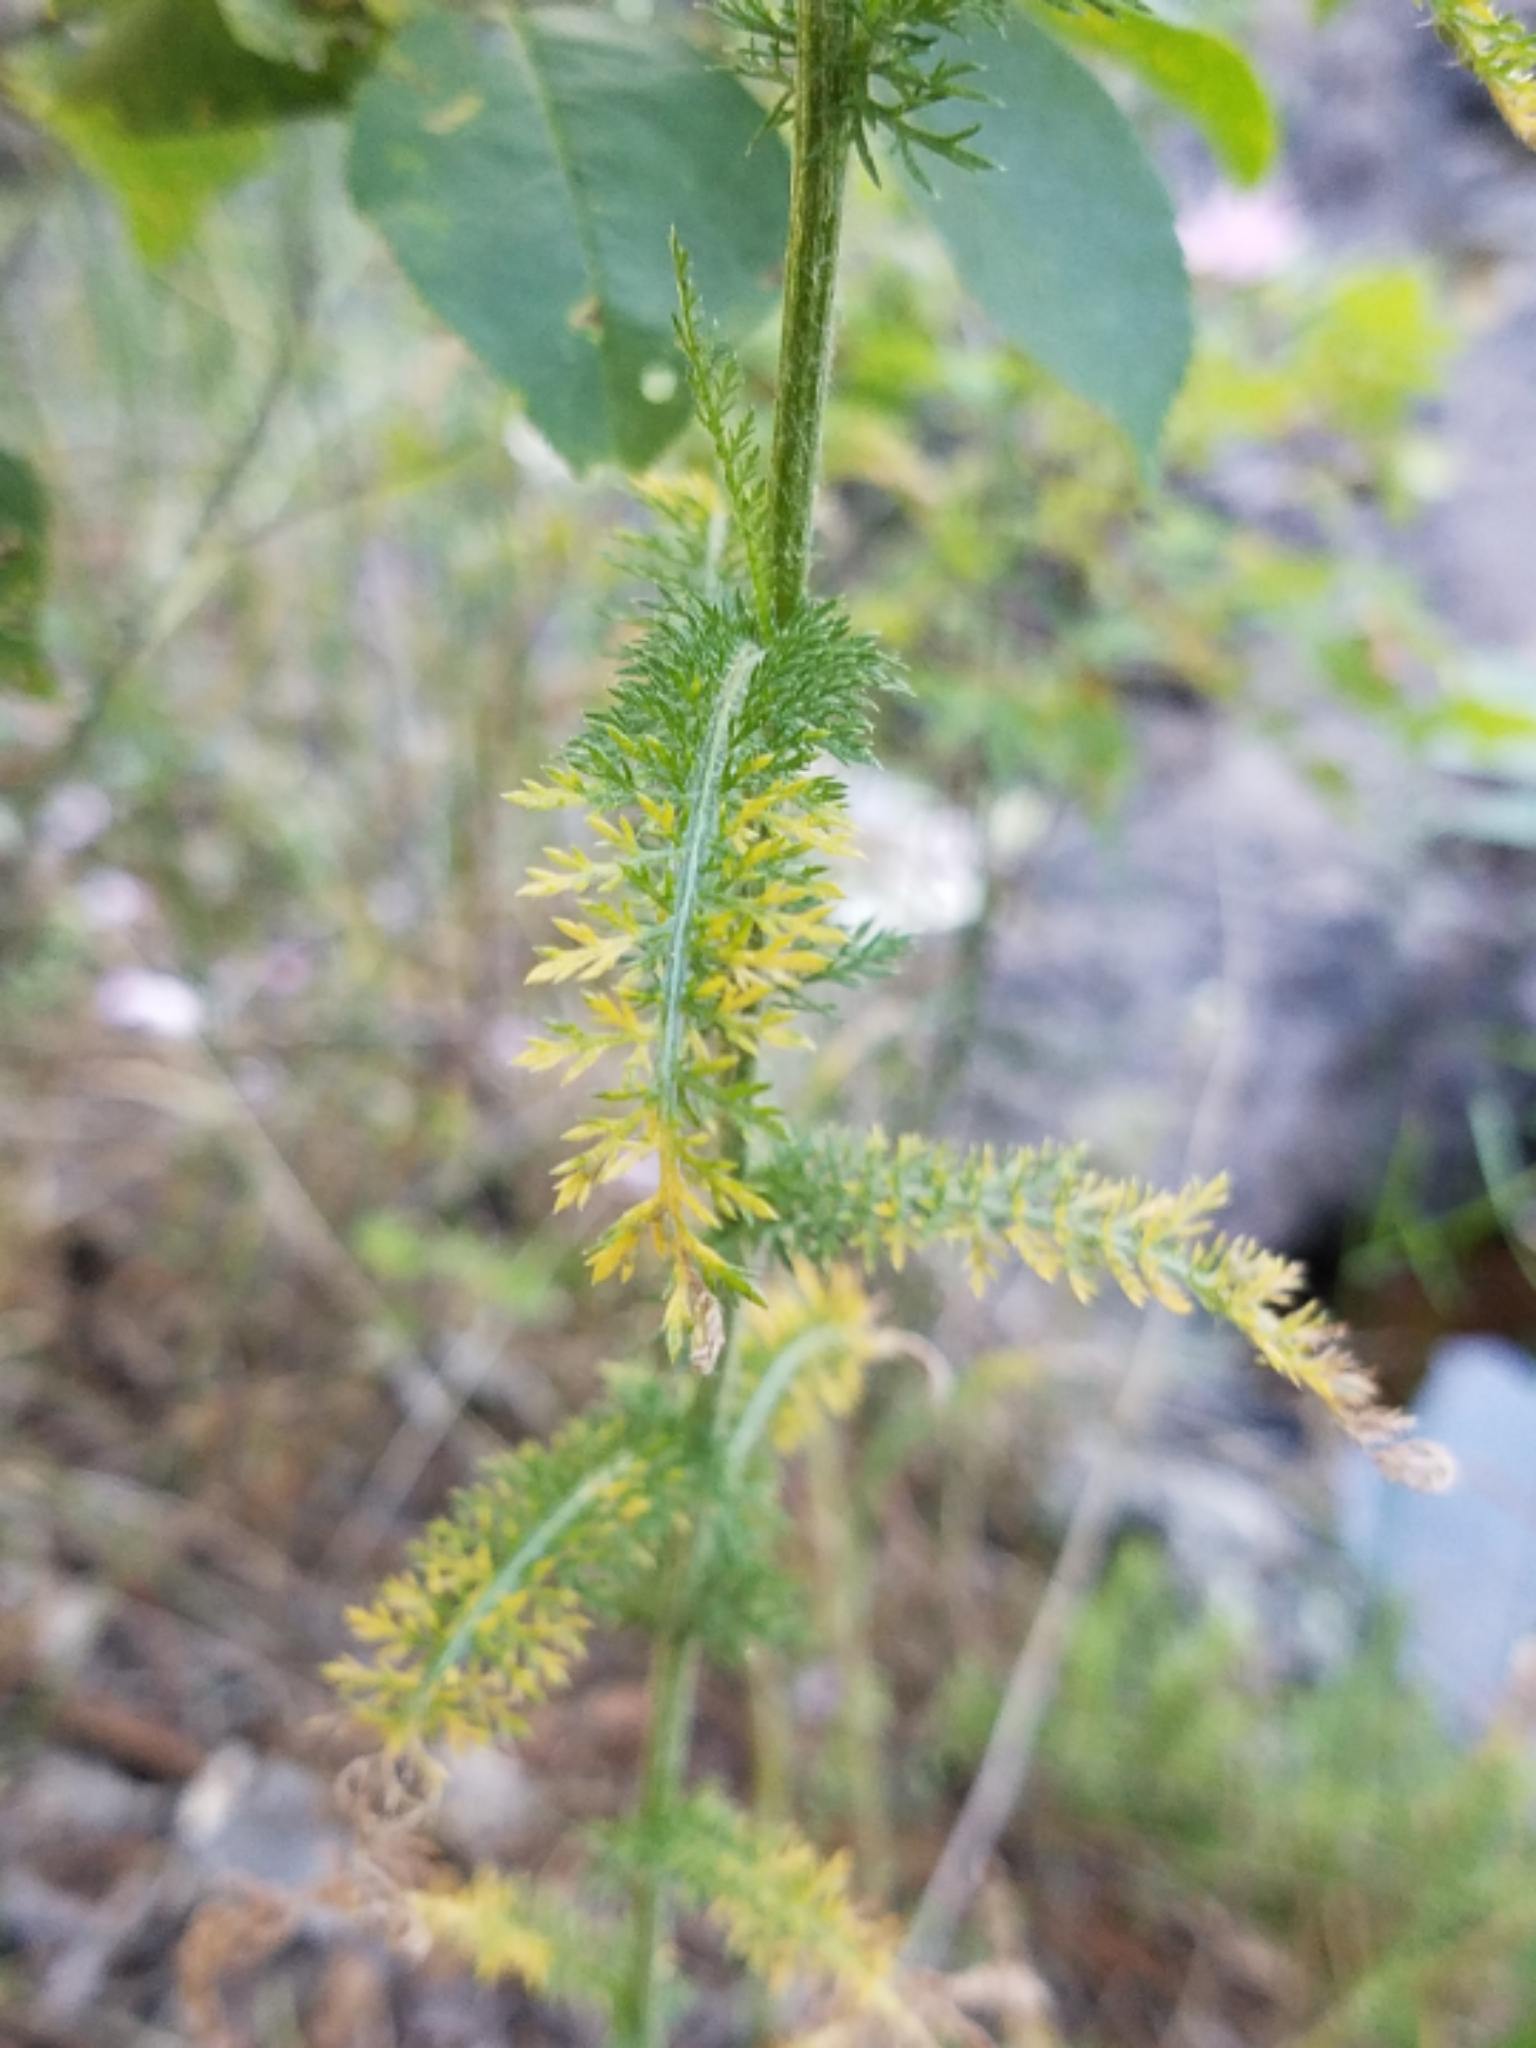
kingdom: Plantae
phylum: Tracheophyta
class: Magnoliopsida
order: Asterales
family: Asteraceae
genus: Achillea
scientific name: Achillea millefolium
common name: Yarrow
